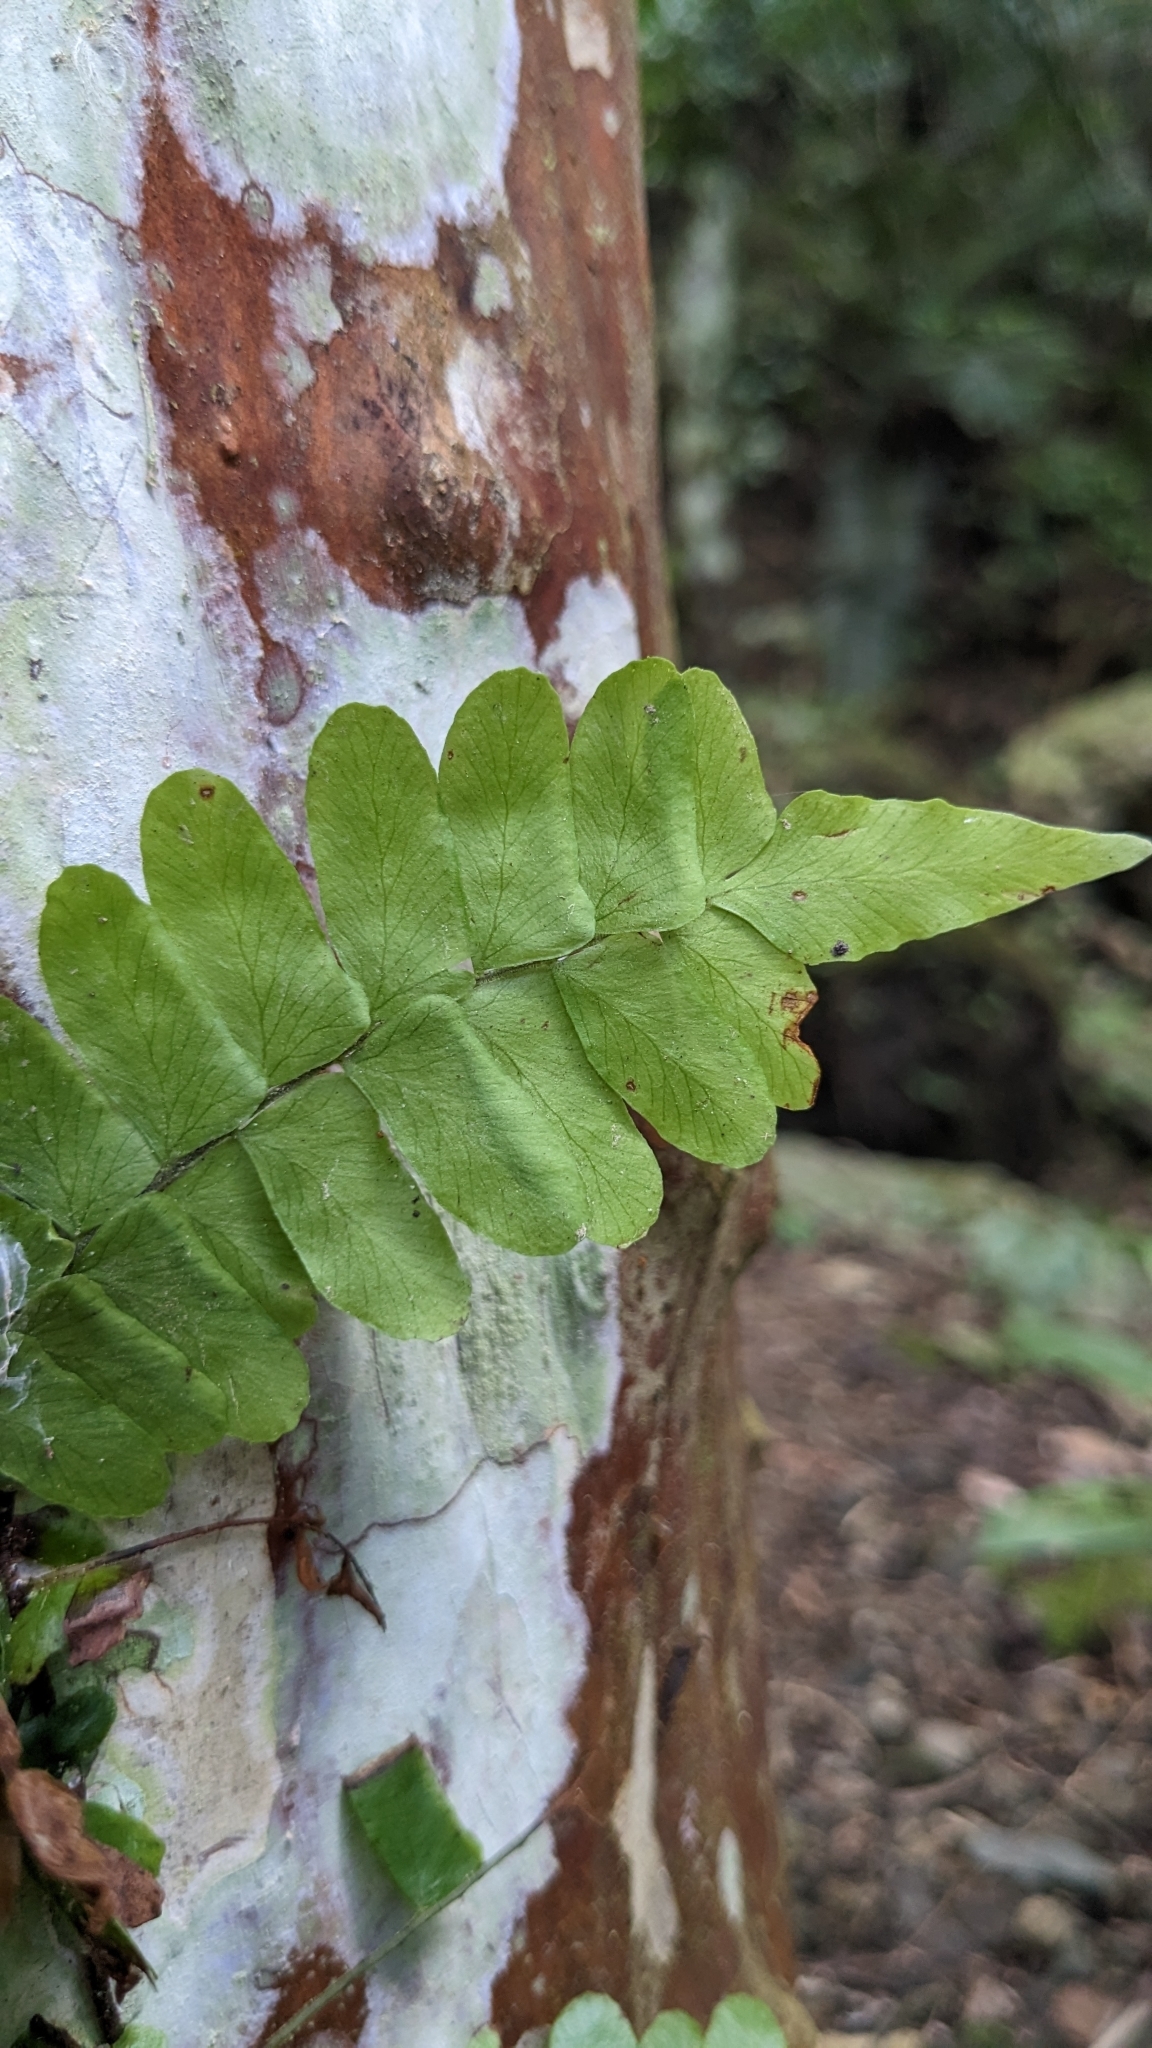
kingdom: Plantae
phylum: Tracheophyta
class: Polypodiopsida
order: Polypodiales
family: Tectariaceae
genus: Arthropteris
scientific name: Arthropteris palisotii
